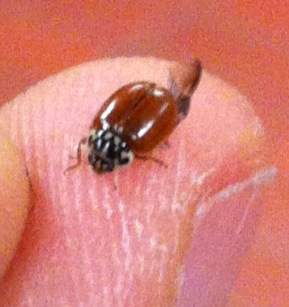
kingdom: Animalia
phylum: Arthropoda
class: Insecta
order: Coleoptera
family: Coccinellidae
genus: Mulsantina
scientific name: Mulsantina picta
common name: Painted ladybird
